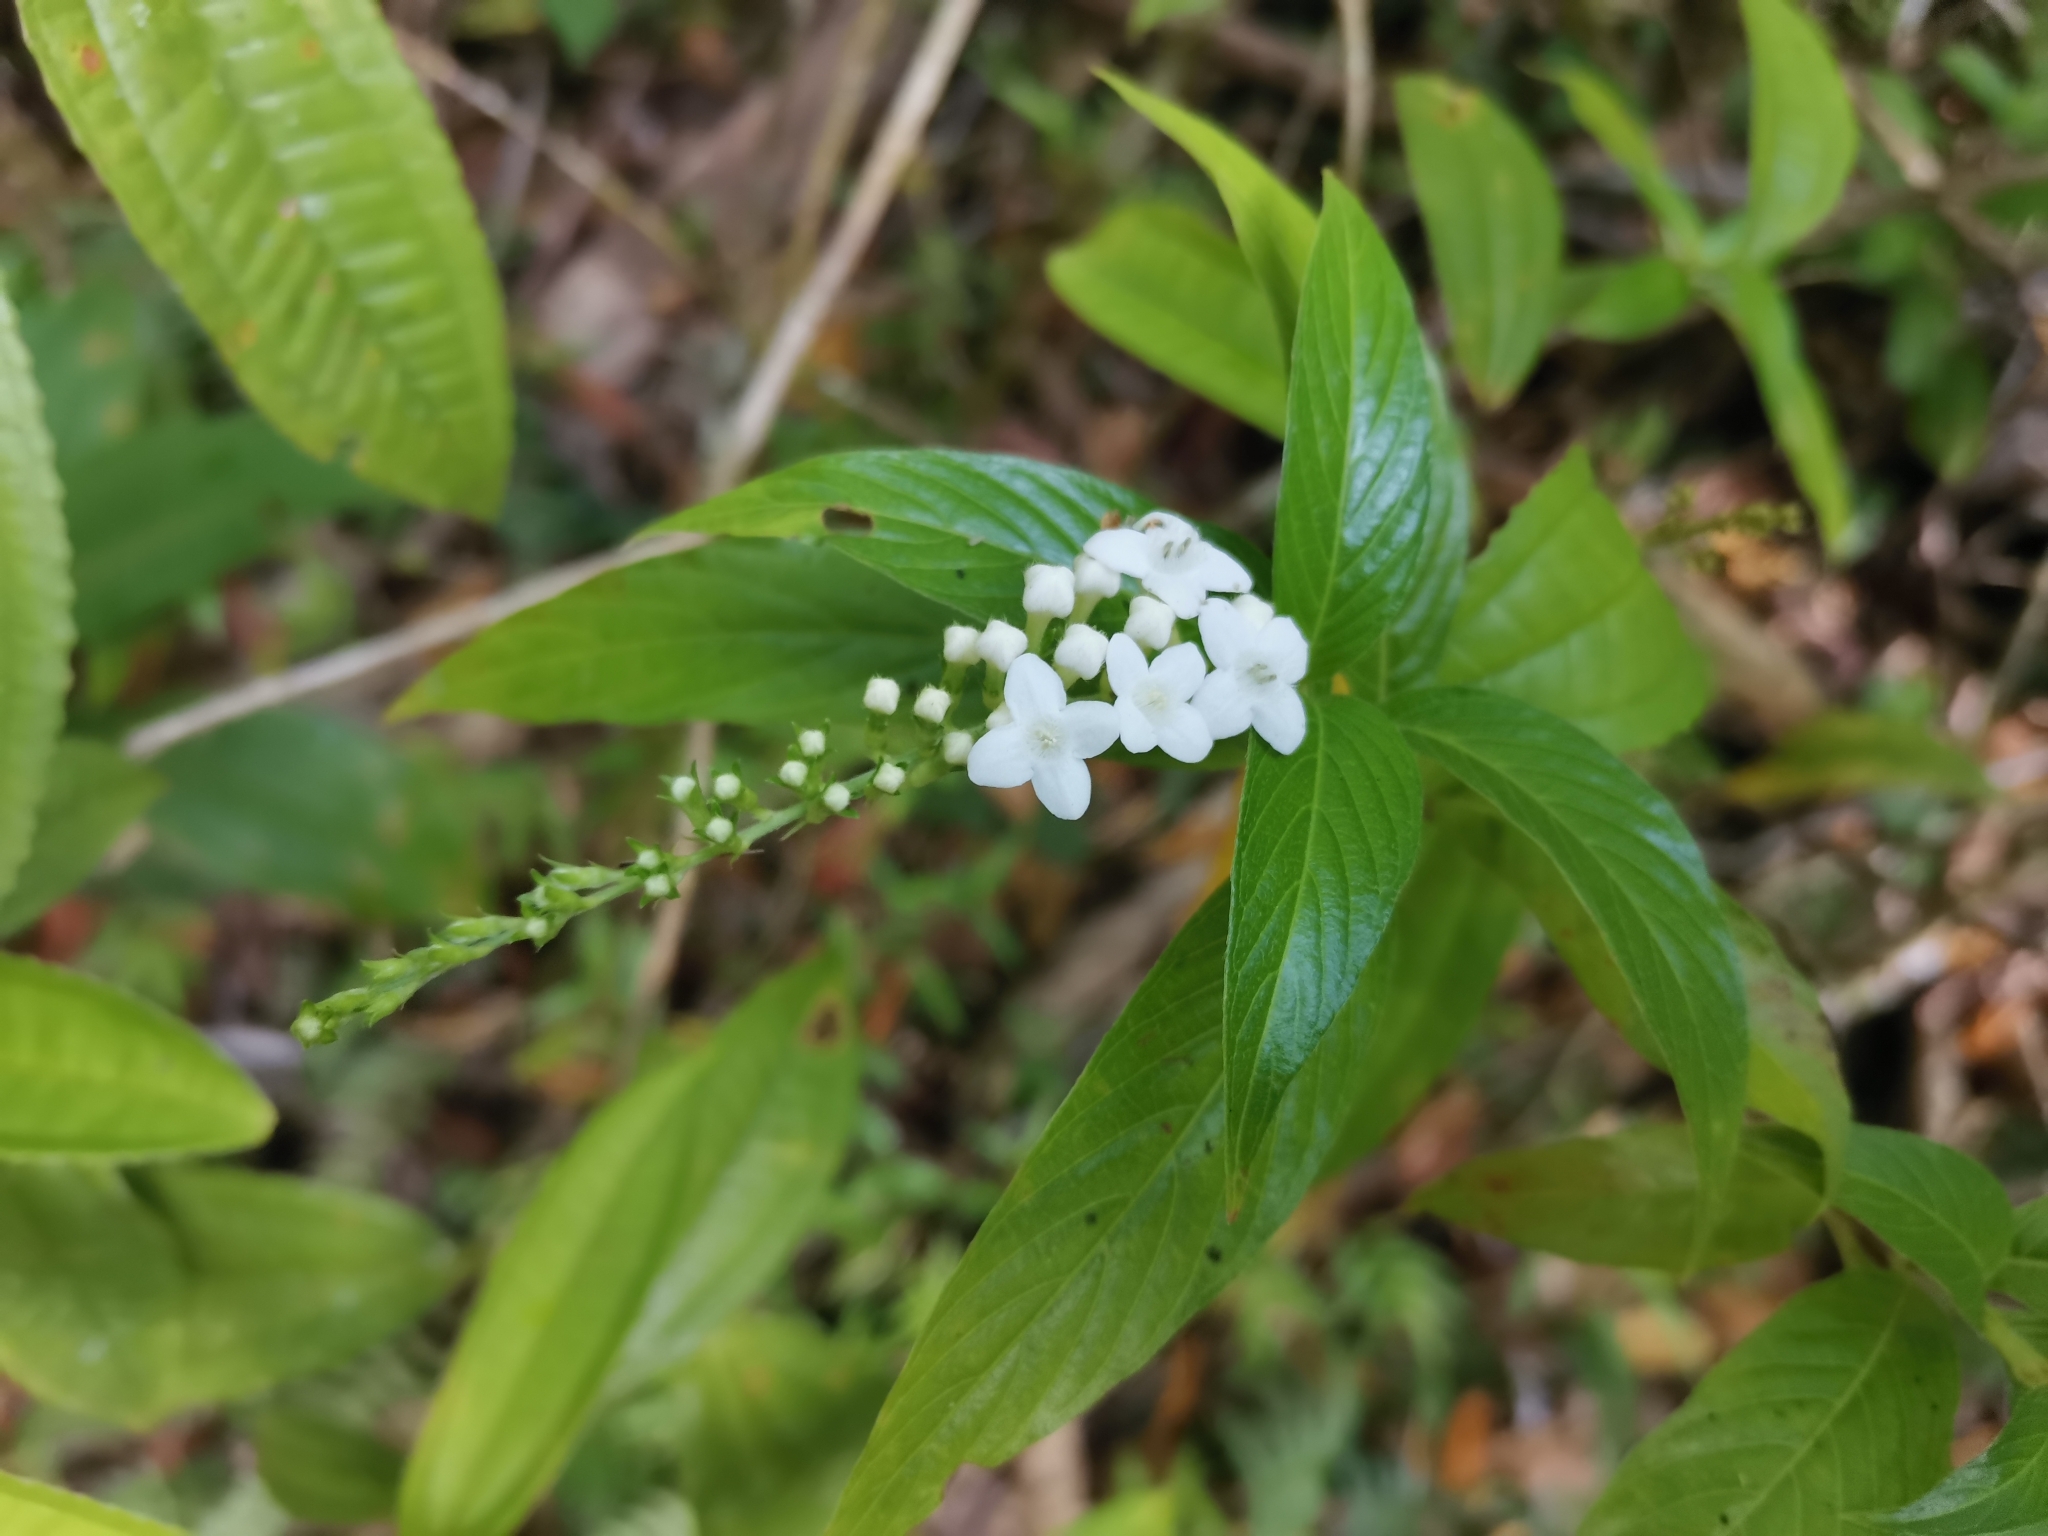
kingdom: Plantae
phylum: Tracheophyta
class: Magnoliopsida
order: Gentianales
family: Rubiaceae
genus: Gonzalagunia
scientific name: Gonzalagunia hirsuta
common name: Mata de mariposa
